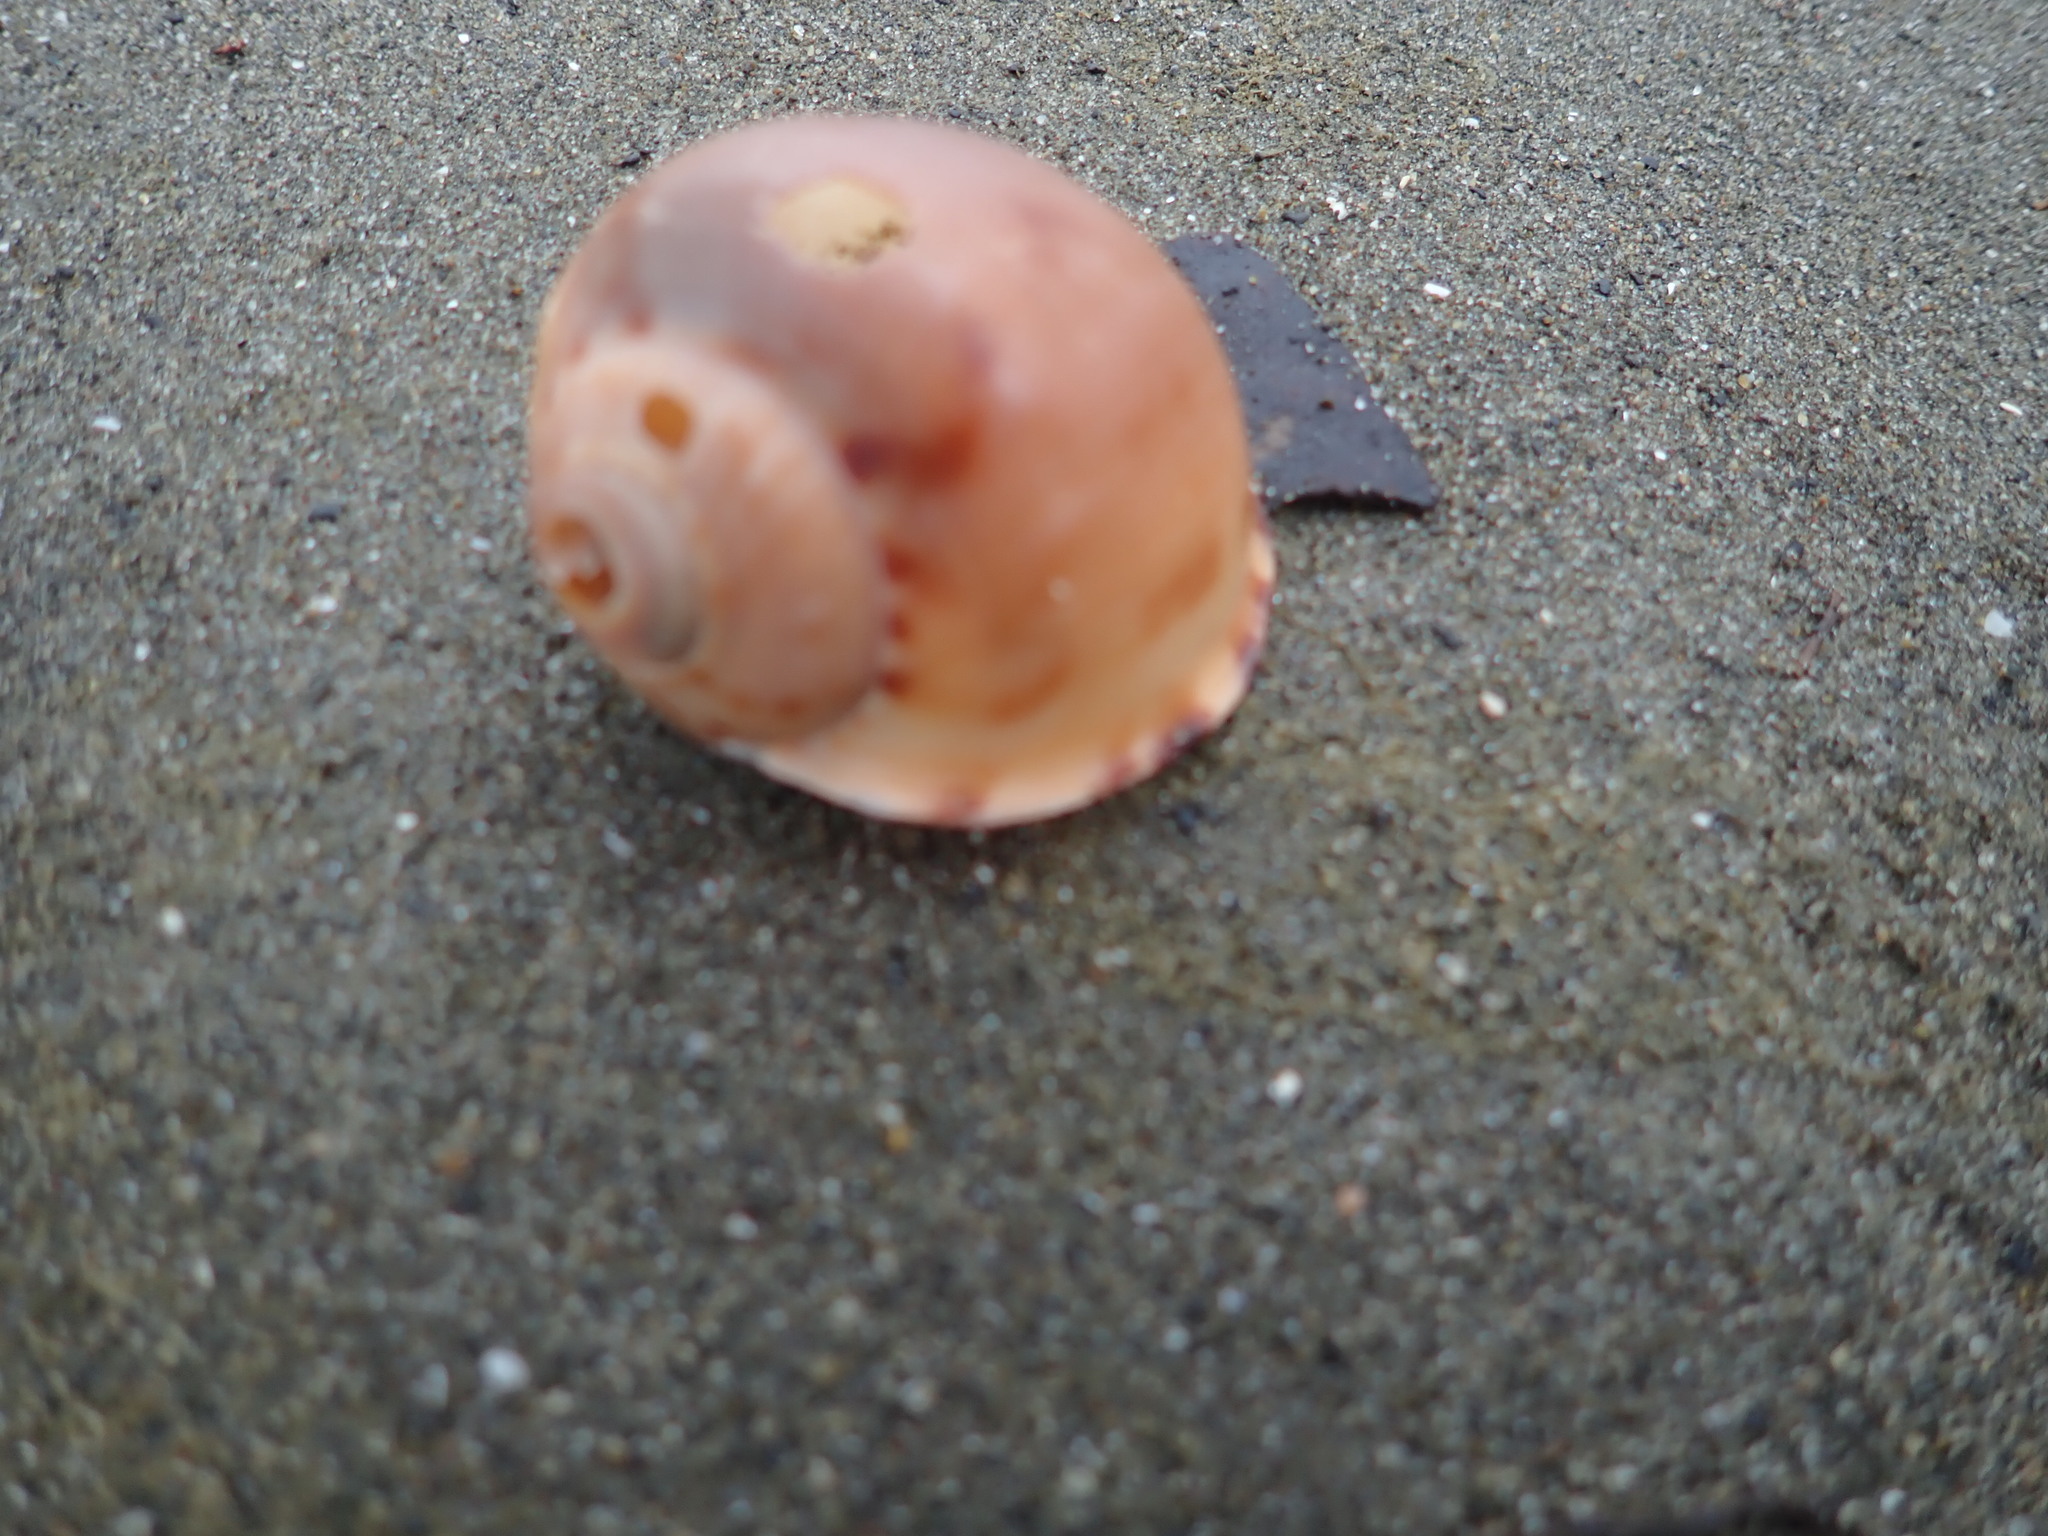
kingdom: Animalia
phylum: Mollusca
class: Gastropoda
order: Littorinimorpha
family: Cassidae
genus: Semicassis
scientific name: Semicassis pyrum
